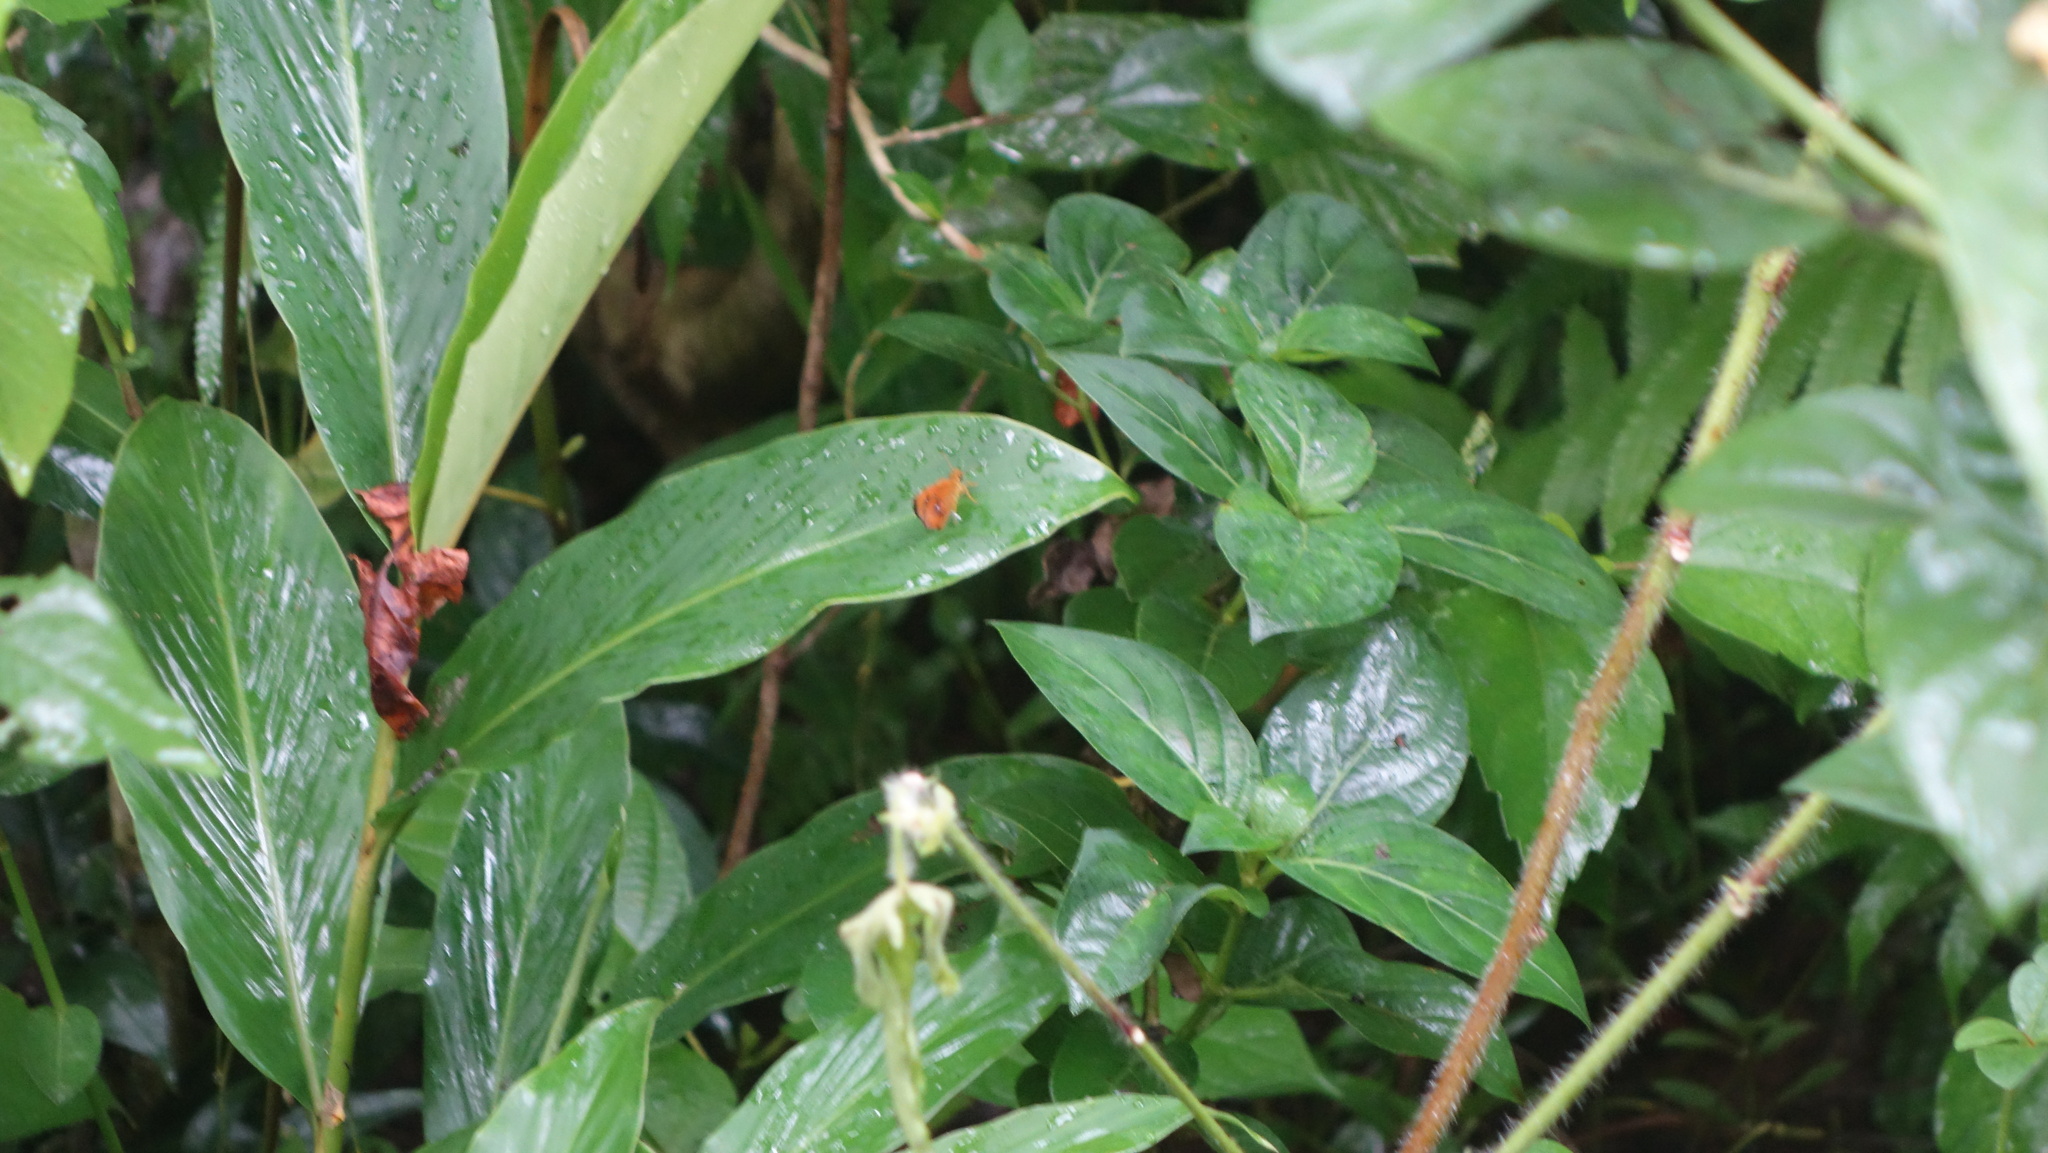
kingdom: Animalia
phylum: Arthropoda
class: Insecta
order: Lepidoptera
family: Hesperiidae
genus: Iambrix
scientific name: Iambrix salsala
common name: Chestnut bob
